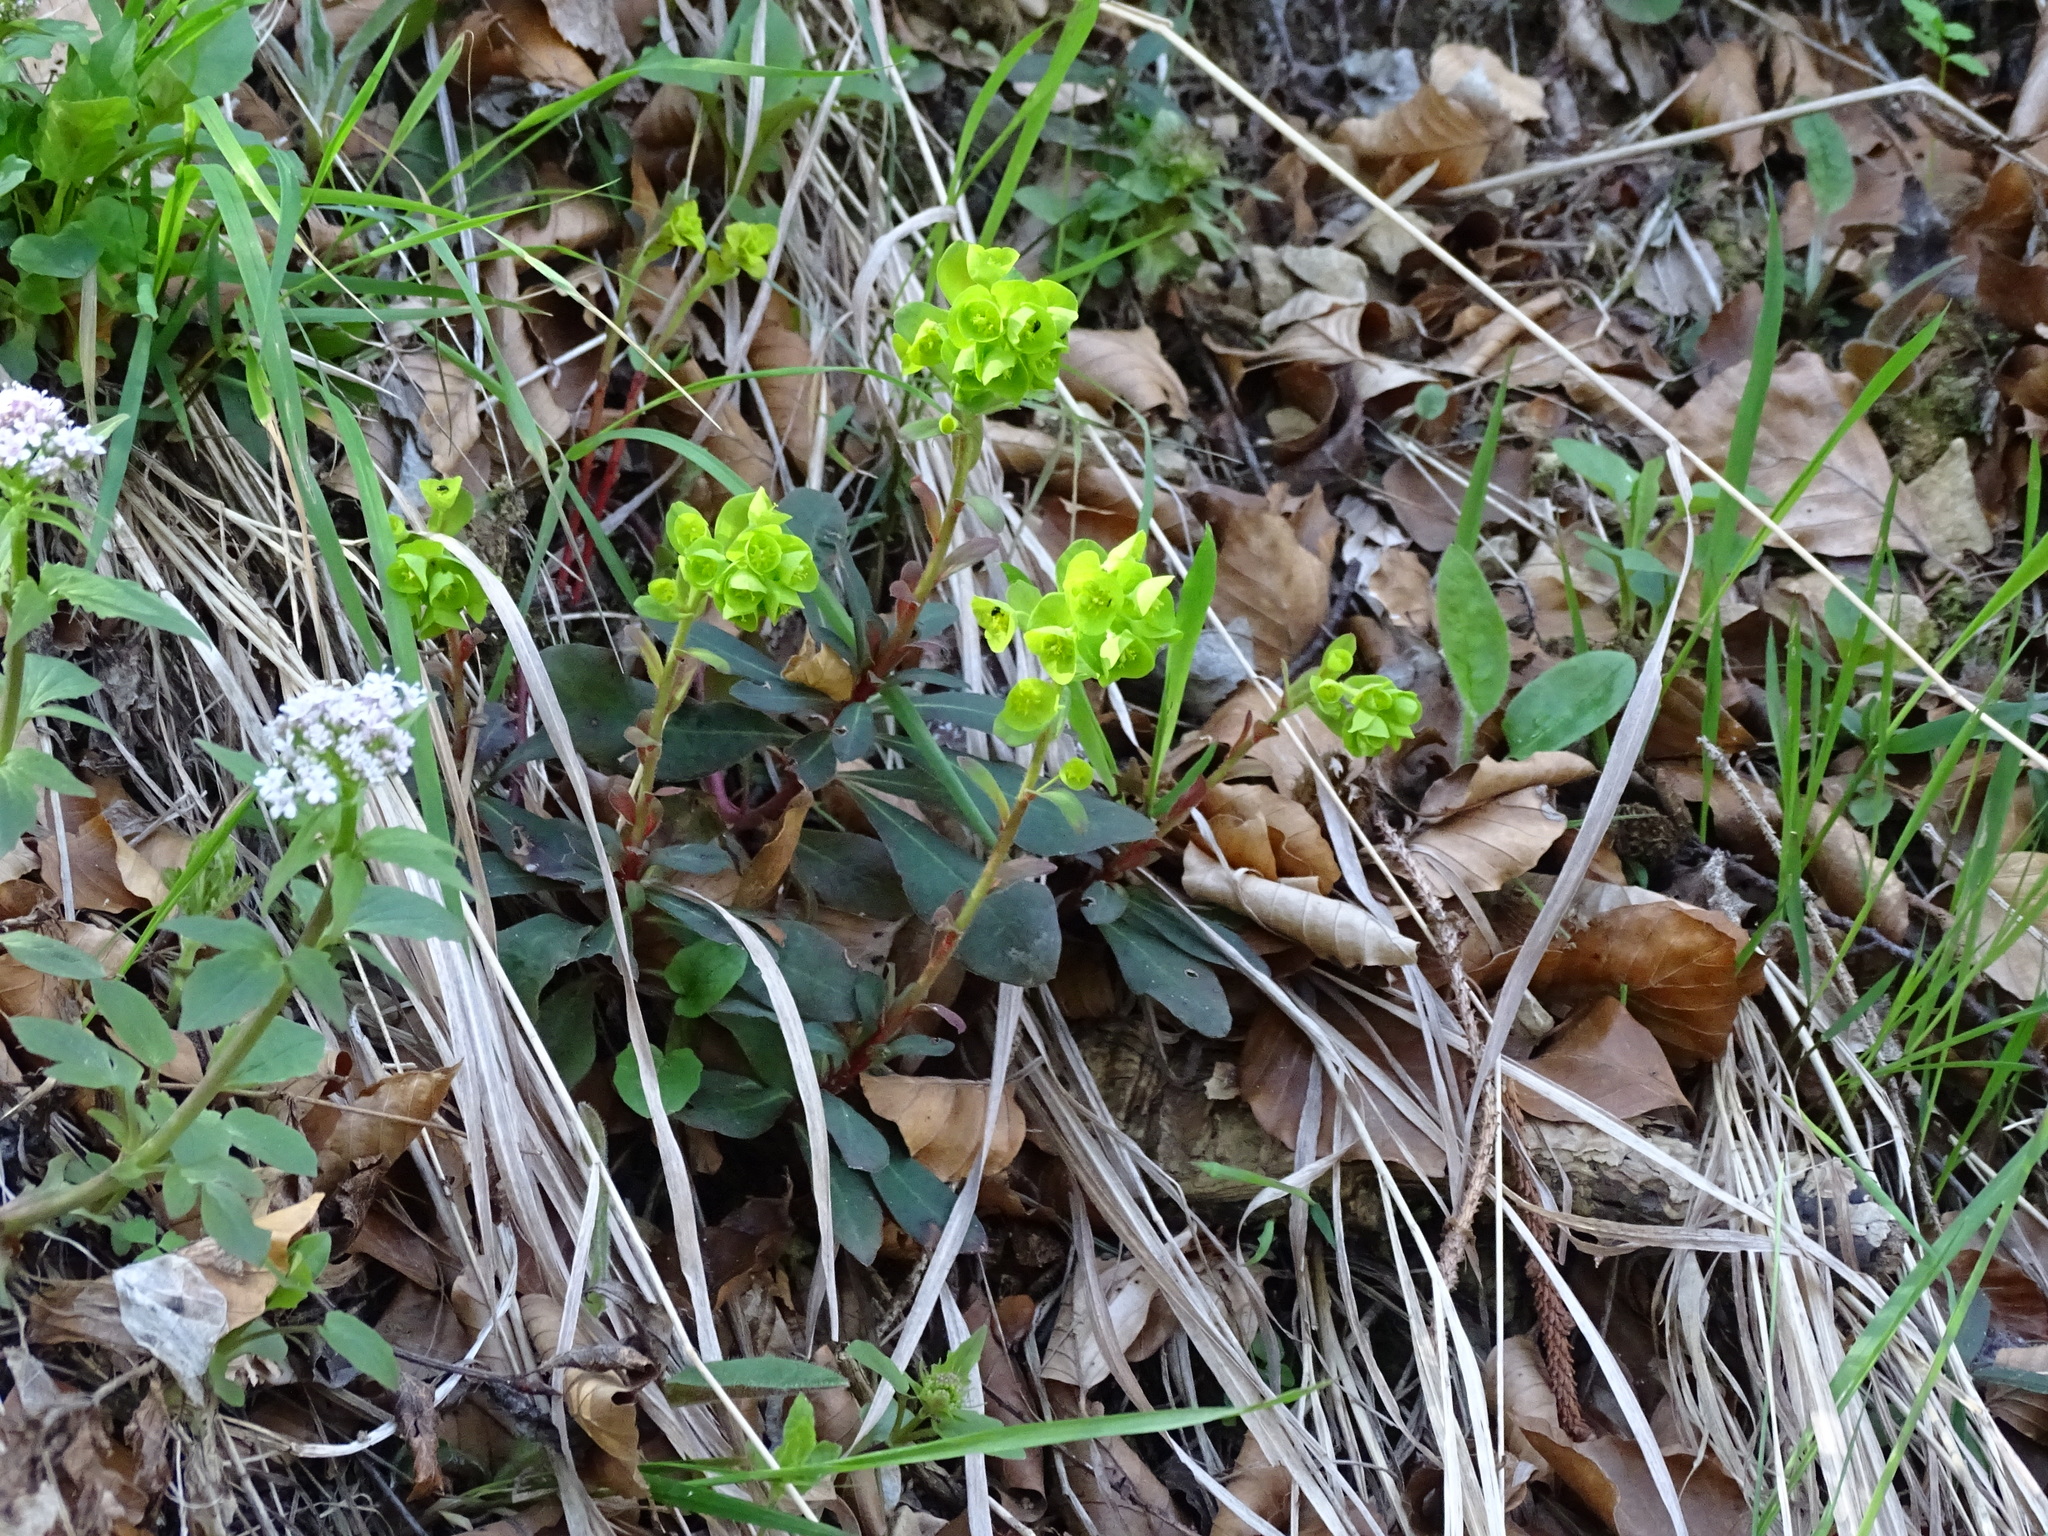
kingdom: Plantae
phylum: Tracheophyta
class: Magnoliopsida
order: Malpighiales
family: Euphorbiaceae
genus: Euphorbia
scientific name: Euphorbia amygdaloides
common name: Wood spurge
